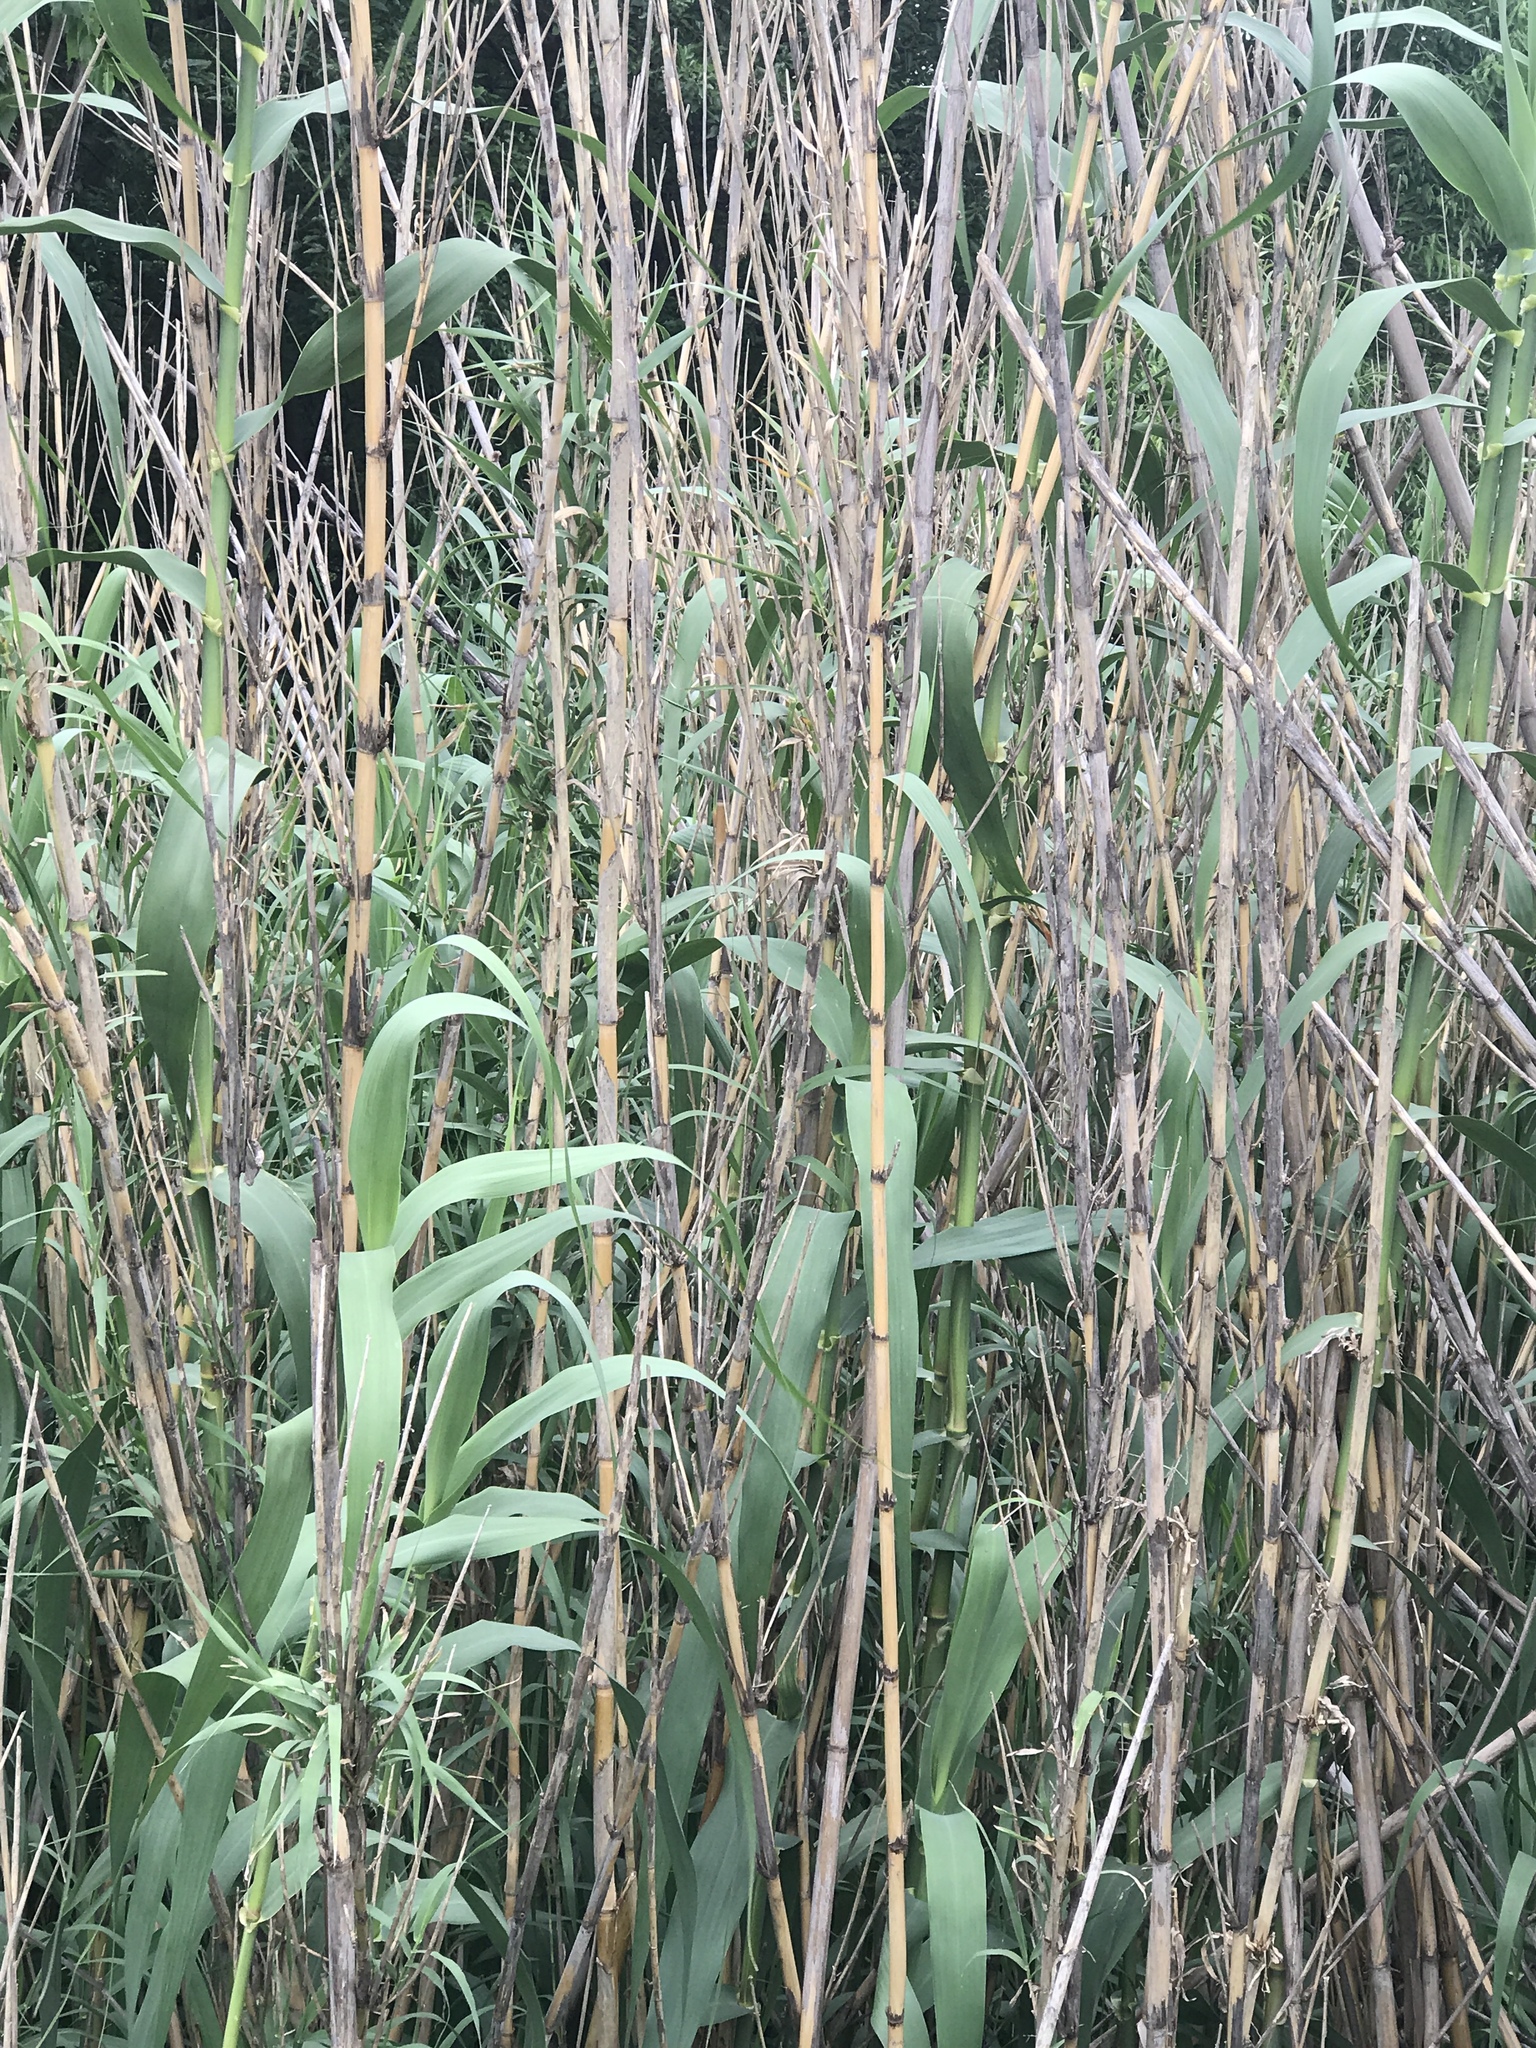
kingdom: Plantae
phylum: Tracheophyta
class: Liliopsida
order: Poales
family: Poaceae
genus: Arundo
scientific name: Arundo donax
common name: Giant reed
